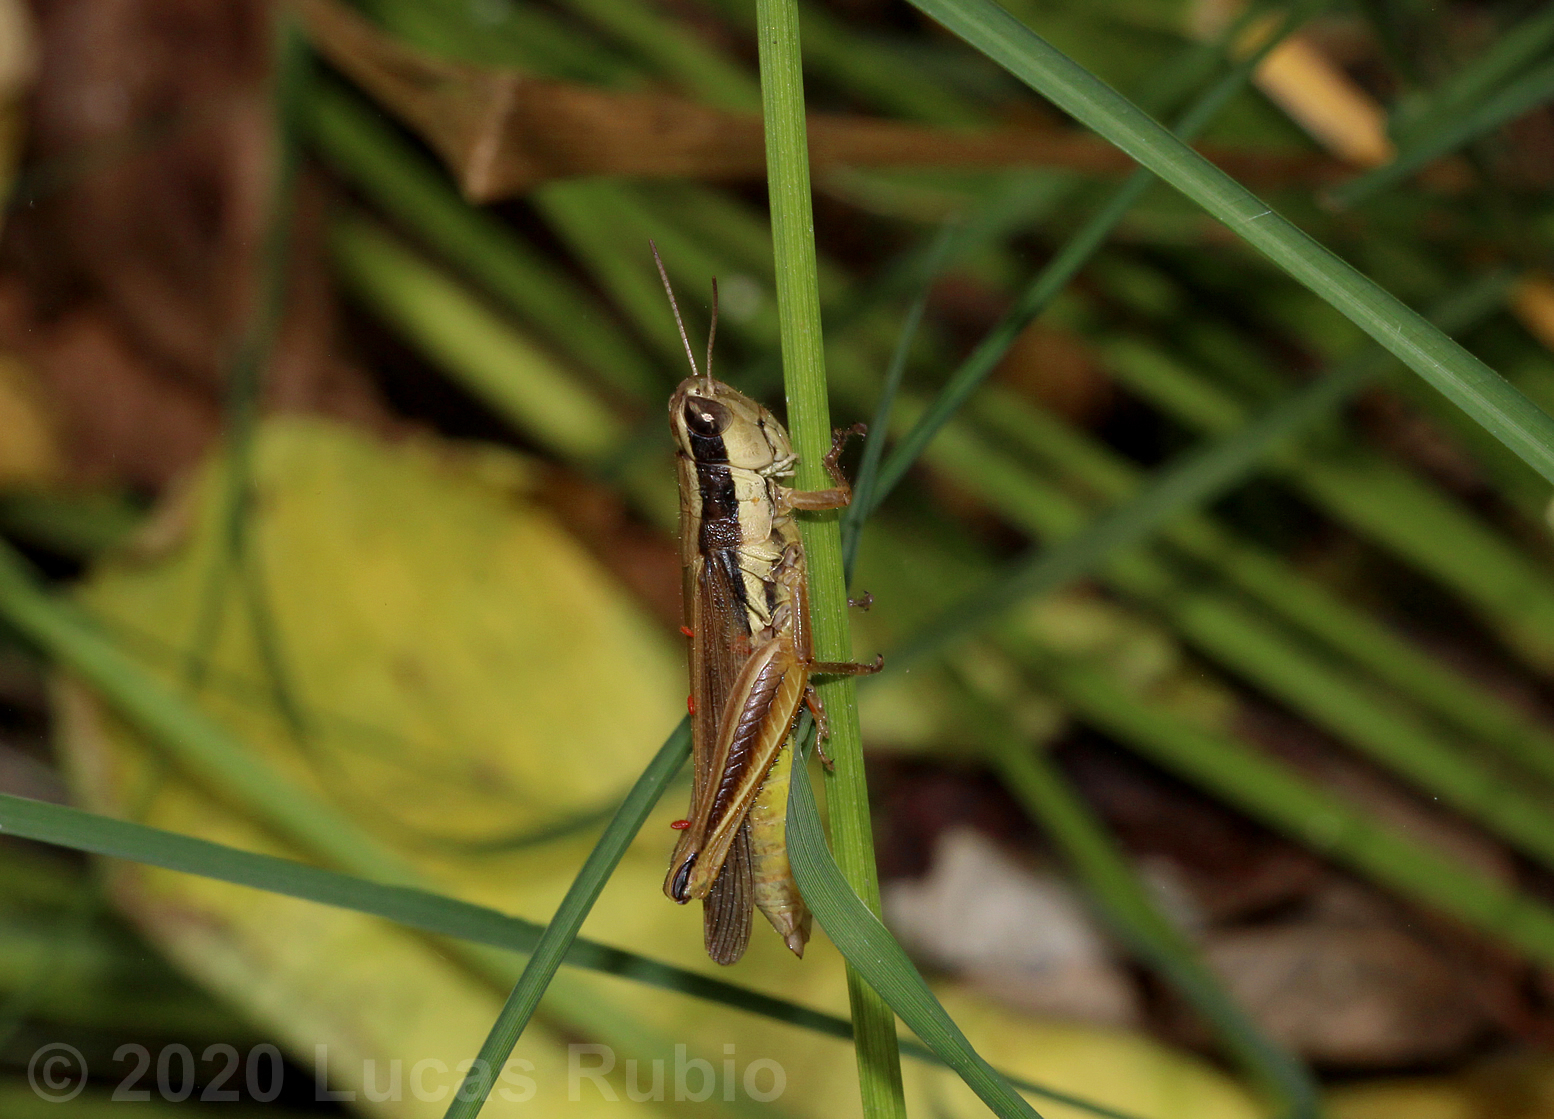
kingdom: Animalia
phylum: Arthropoda
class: Insecta
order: Orthoptera
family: Acrididae
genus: Scotussa
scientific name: Scotussa lemniscata
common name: Slender orange-legged grasshopper
